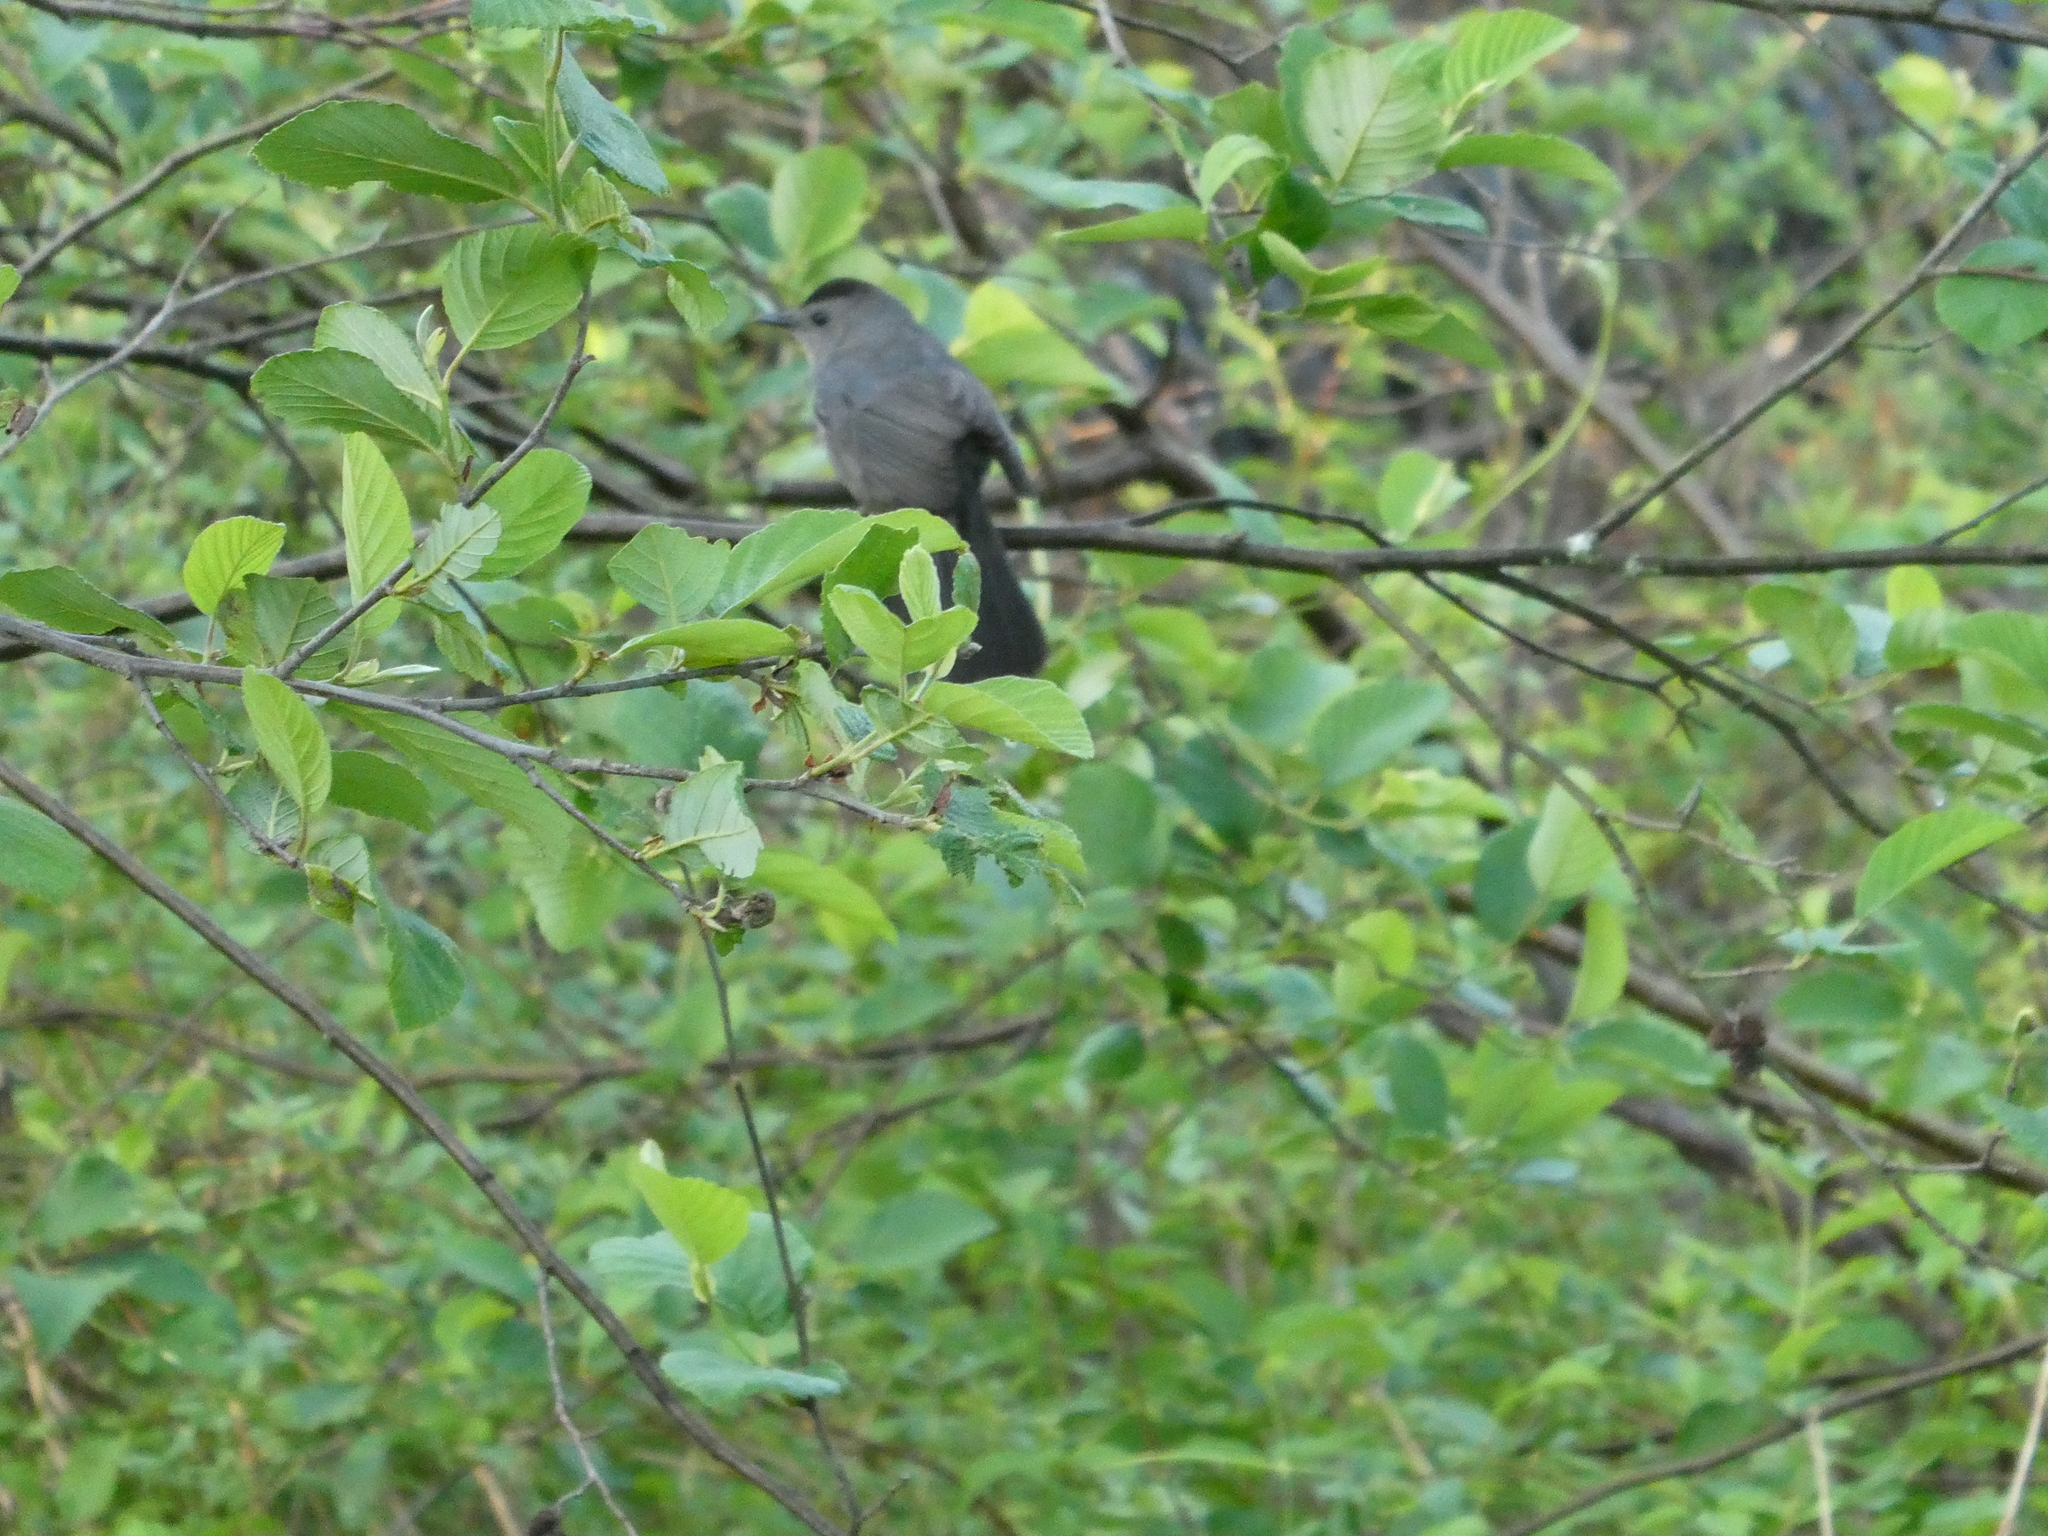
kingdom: Animalia
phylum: Chordata
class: Aves
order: Passeriformes
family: Mimidae
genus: Dumetella
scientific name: Dumetella carolinensis
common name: Gray catbird
